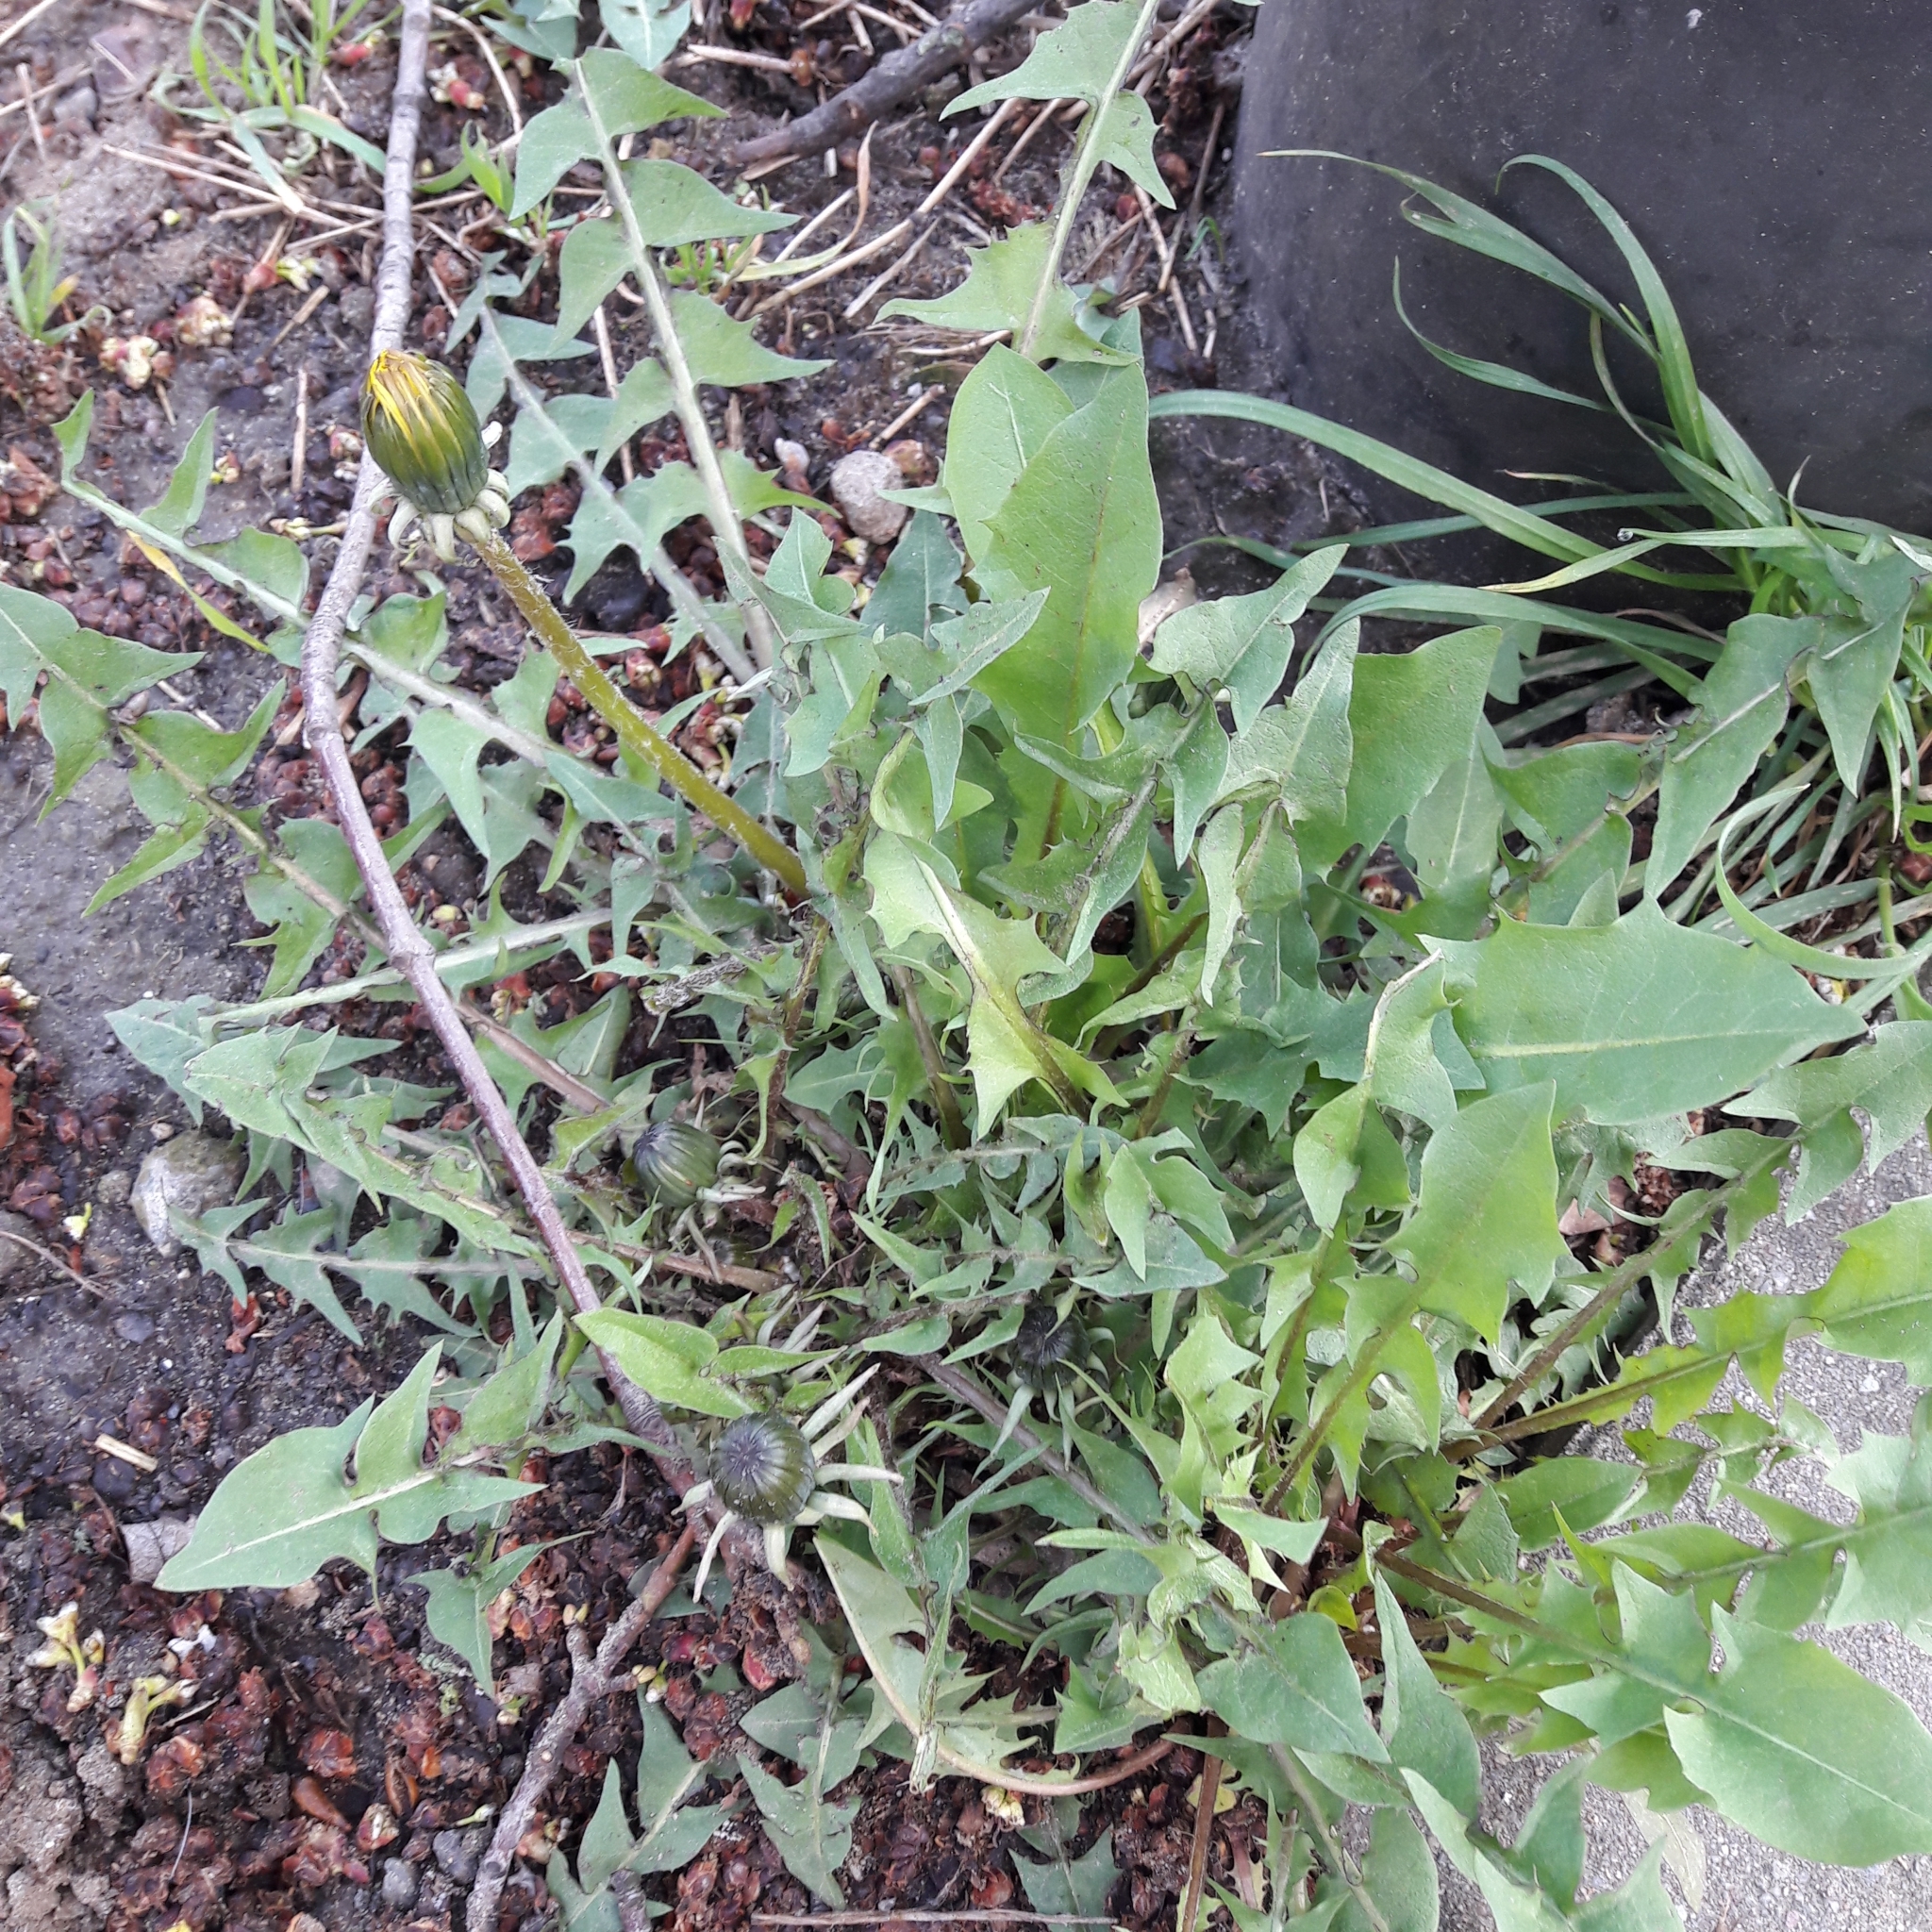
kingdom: Plantae
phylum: Tracheophyta
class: Magnoliopsida
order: Asterales
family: Asteraceae
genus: Taraxacum
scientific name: Taraxacum officinale
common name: Common dandelion
